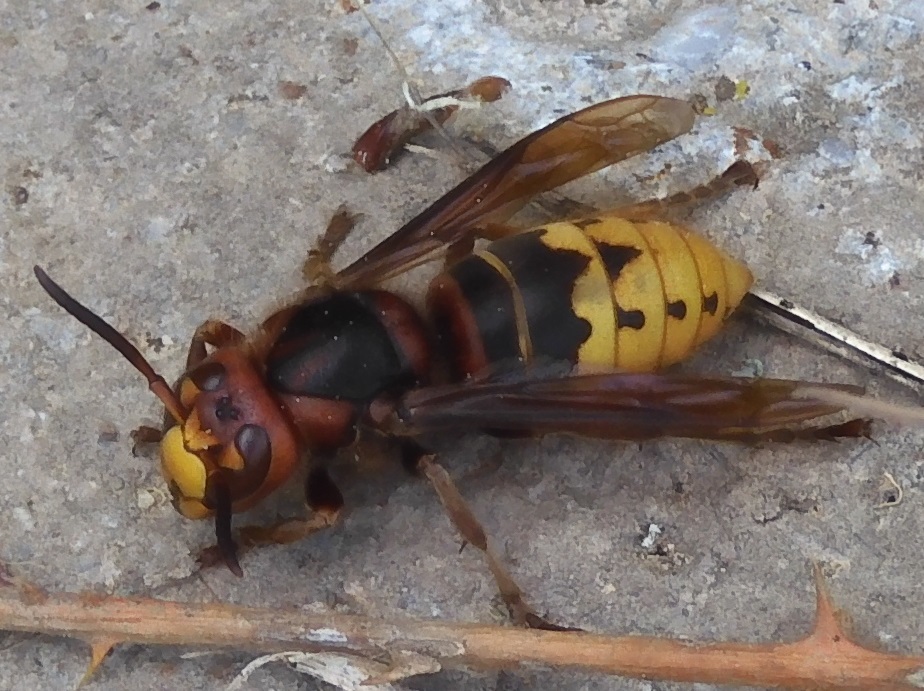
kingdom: Animalia
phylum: Arthropoda
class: Insecta
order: Hymenoptera
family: Vespidae
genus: Vespa
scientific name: Vespa crabro
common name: Hornet
